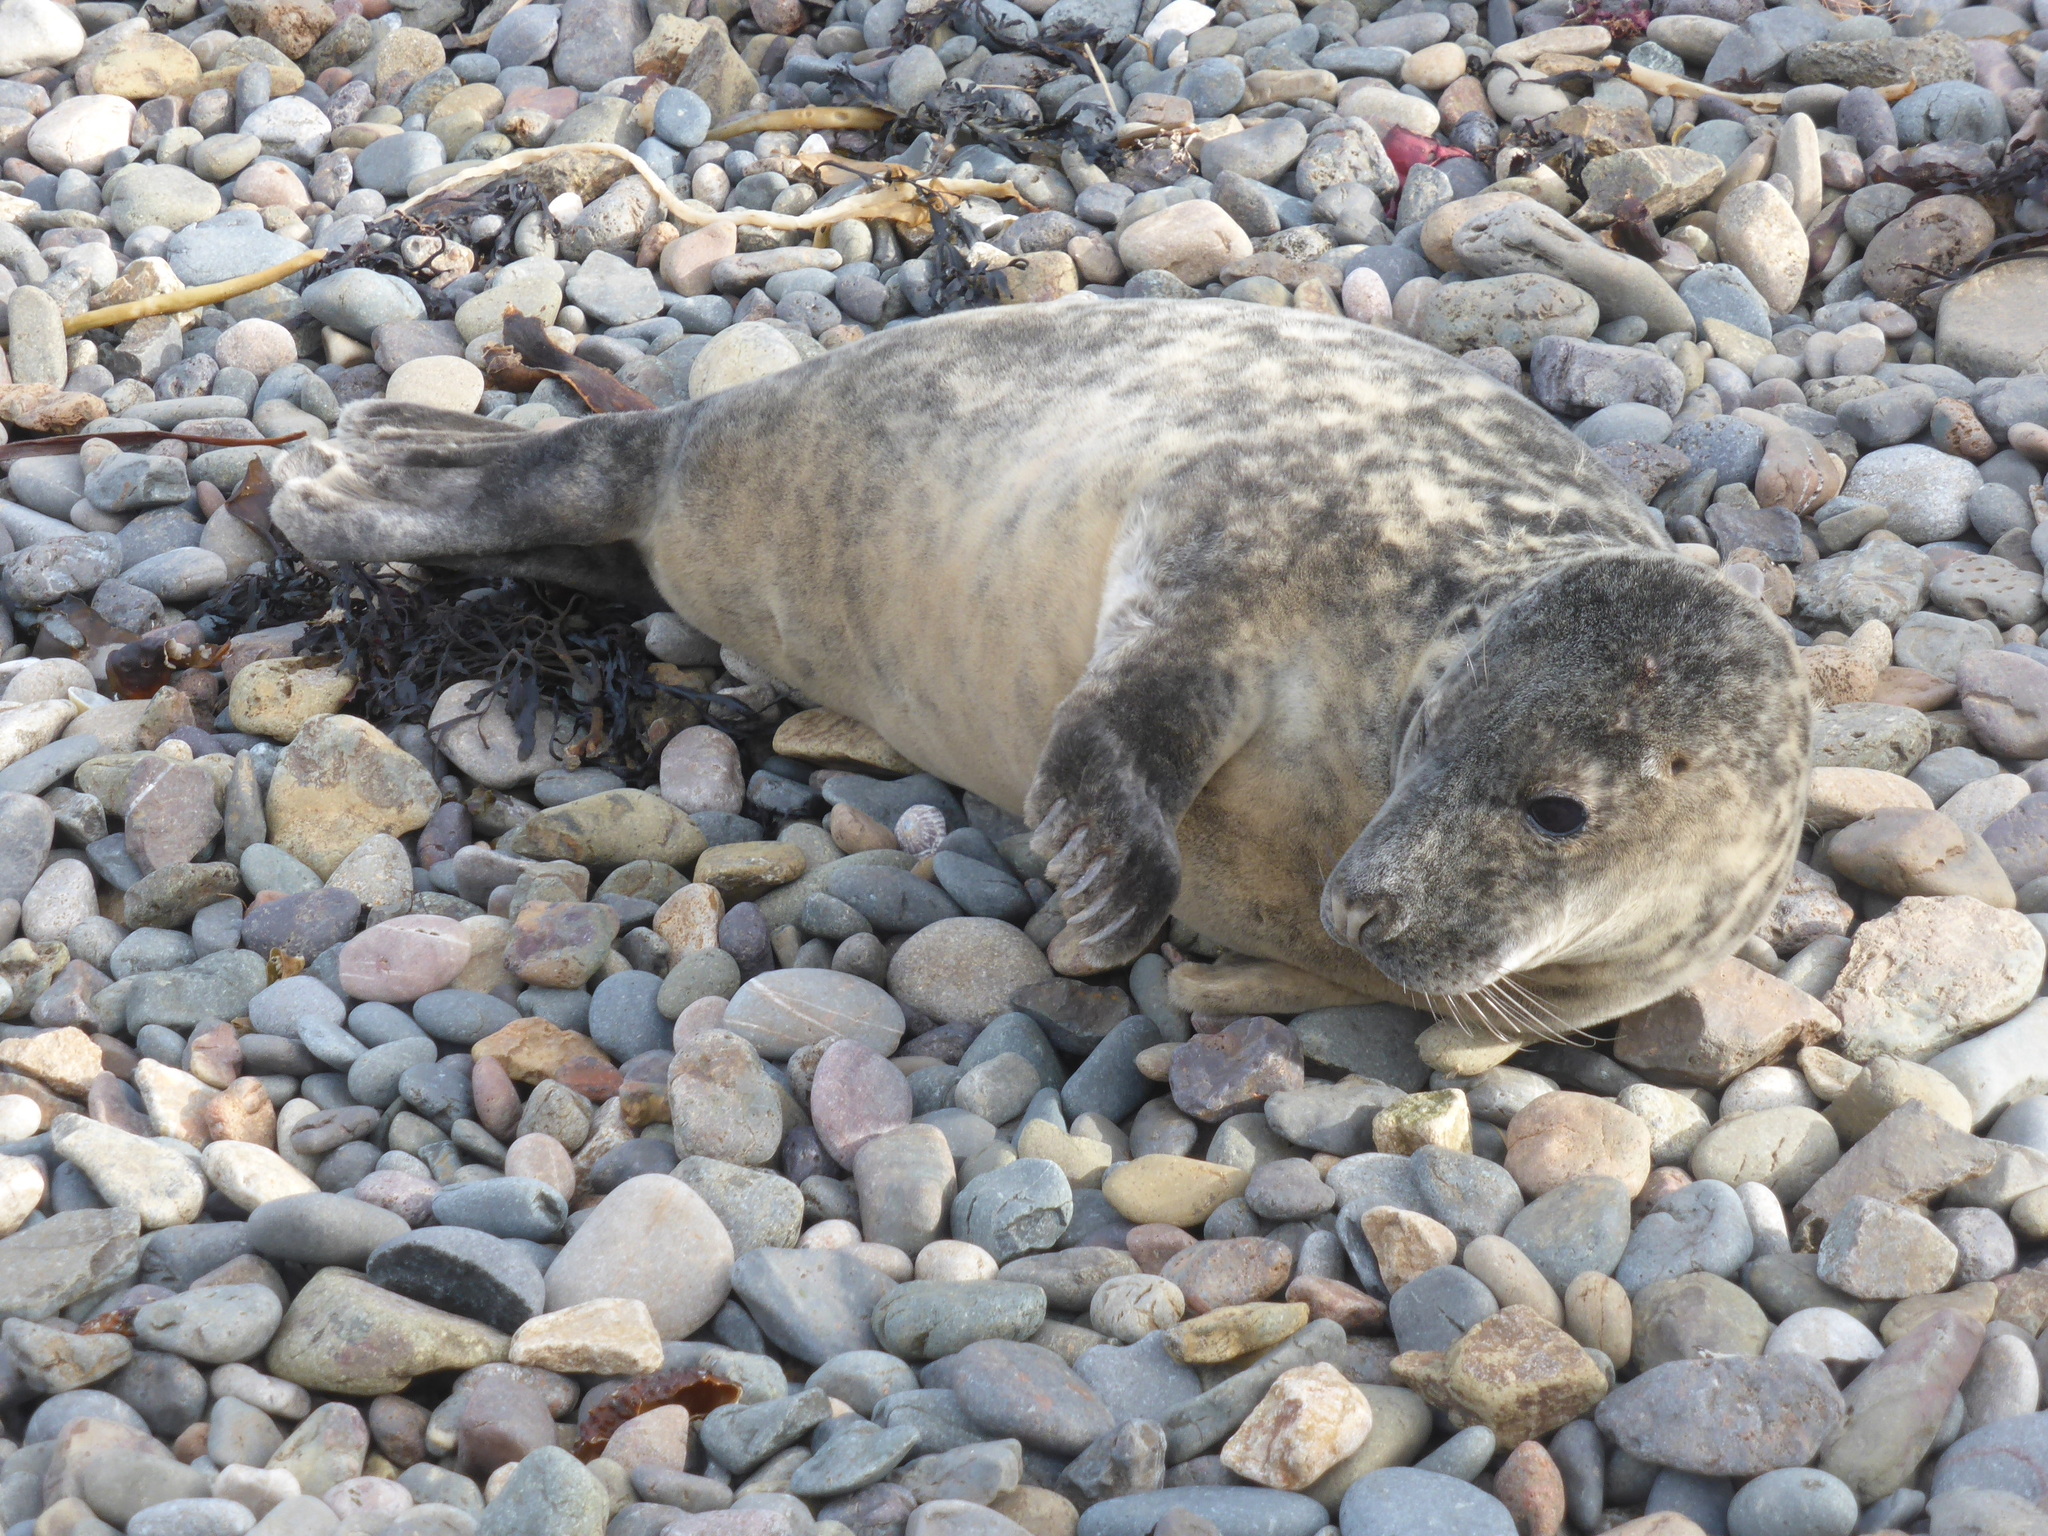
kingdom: Animalia
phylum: Chordata
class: Mammalia
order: Carnivora
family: Phocidae
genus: Halichoerus
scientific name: Halichoerus grypus
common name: Grey seal
